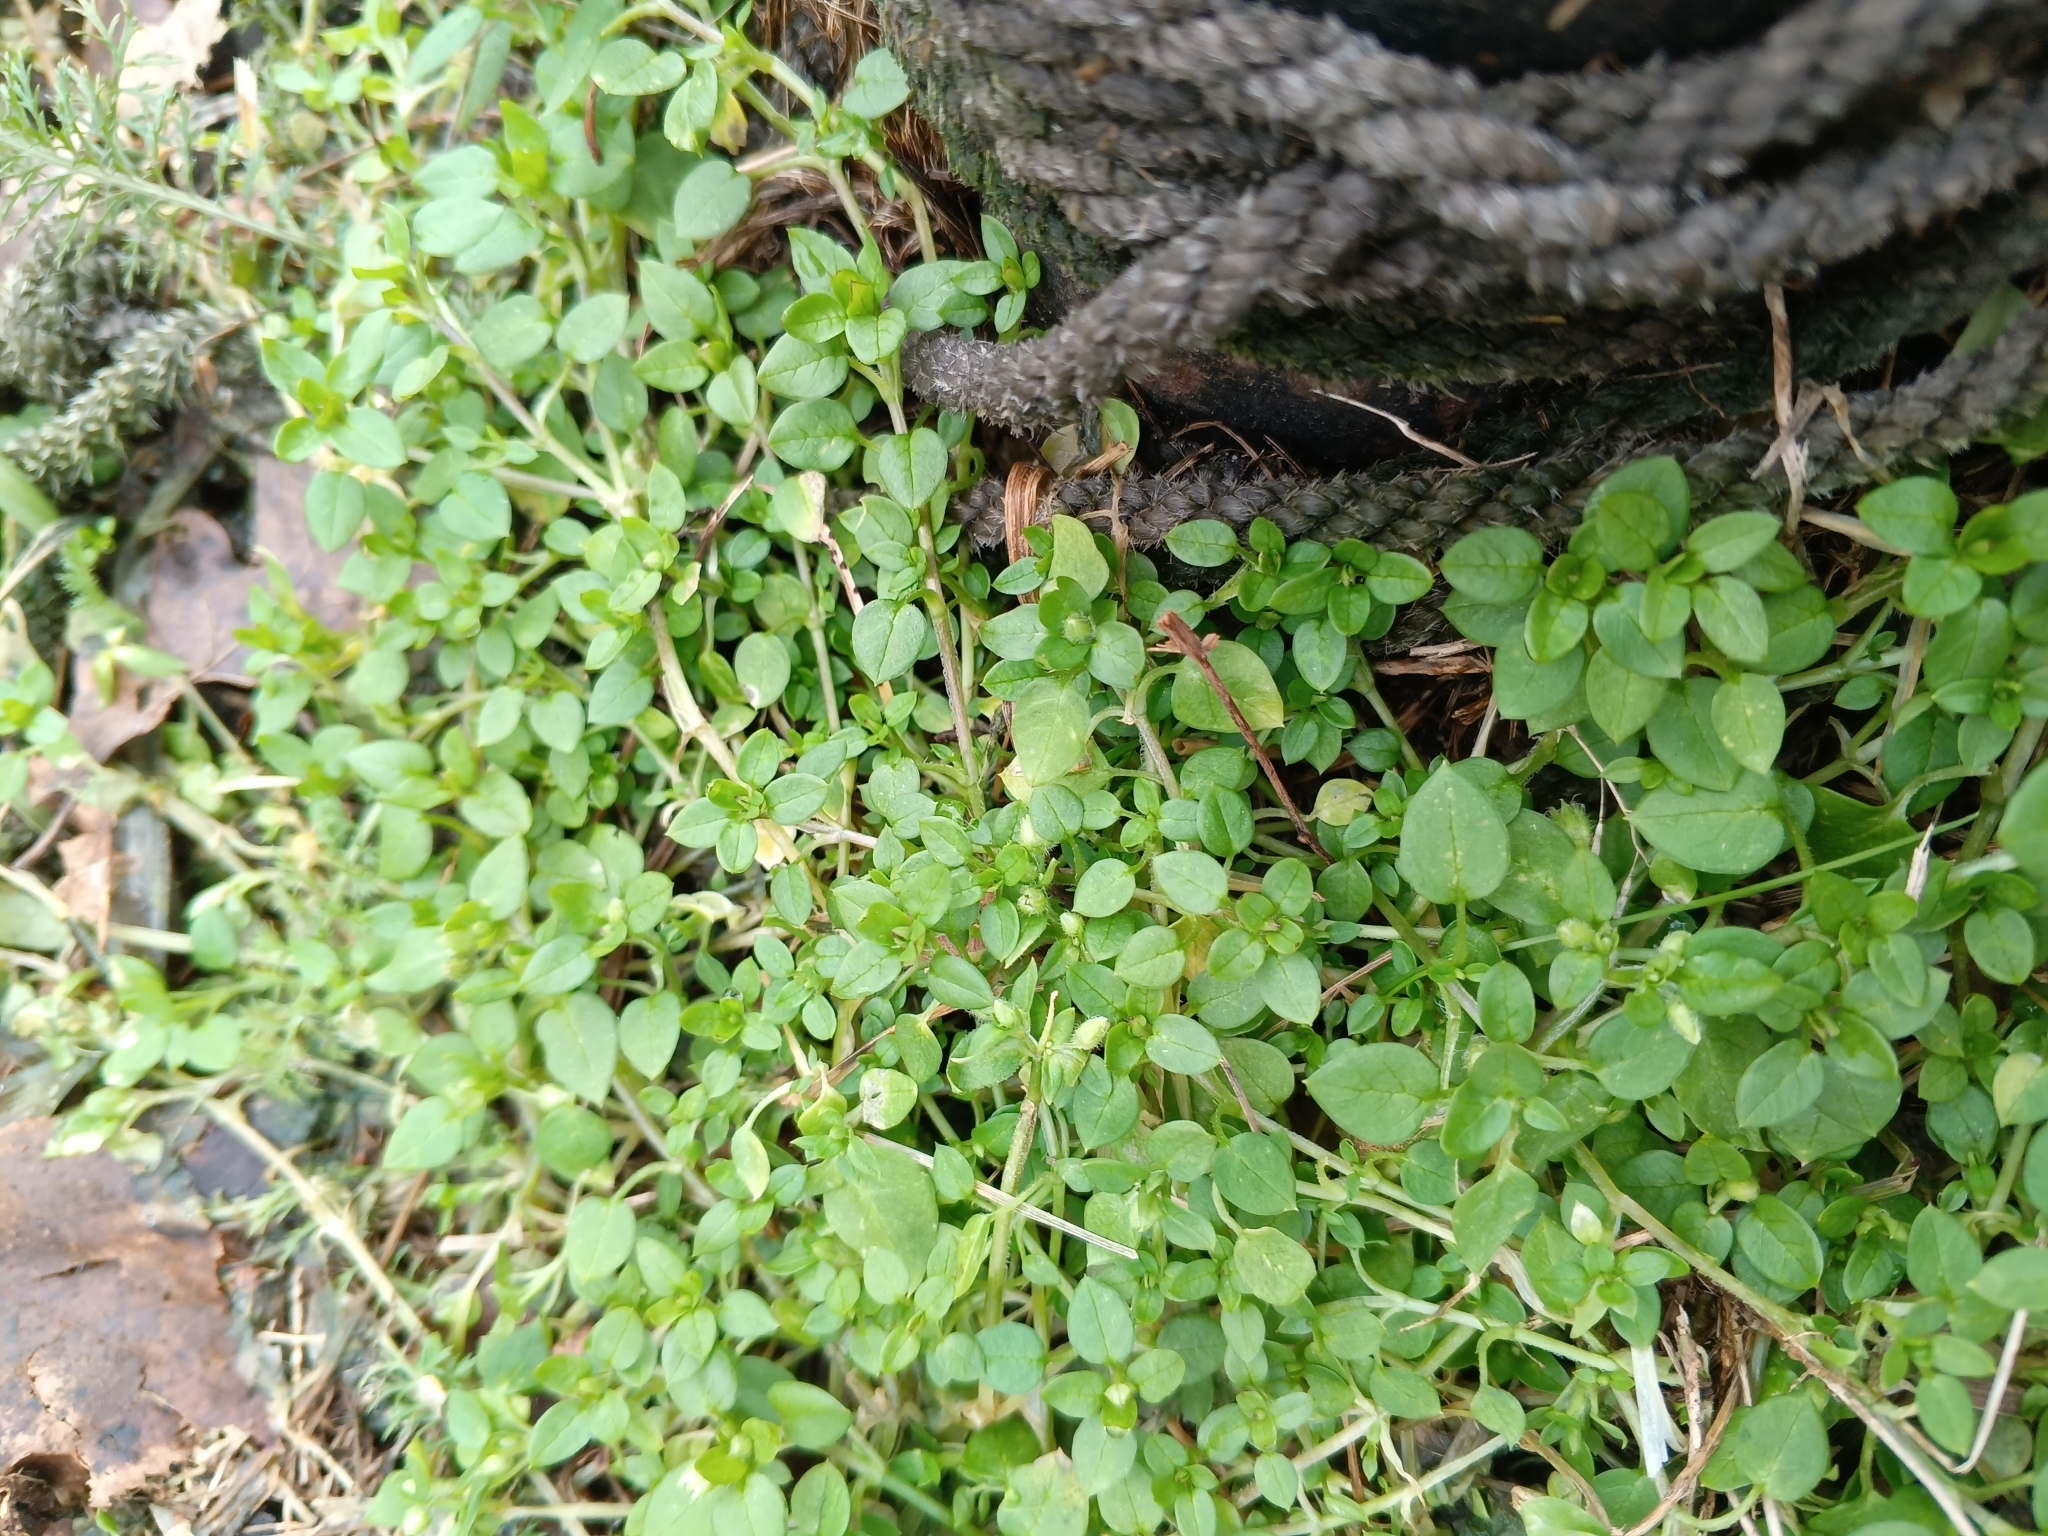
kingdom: Plantae
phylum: Tracheophyta
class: Magnoliopsida
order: Caryophyllales
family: Caryophyllaceae
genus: Stellaria
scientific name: Stellaria media
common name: Common chickweed
